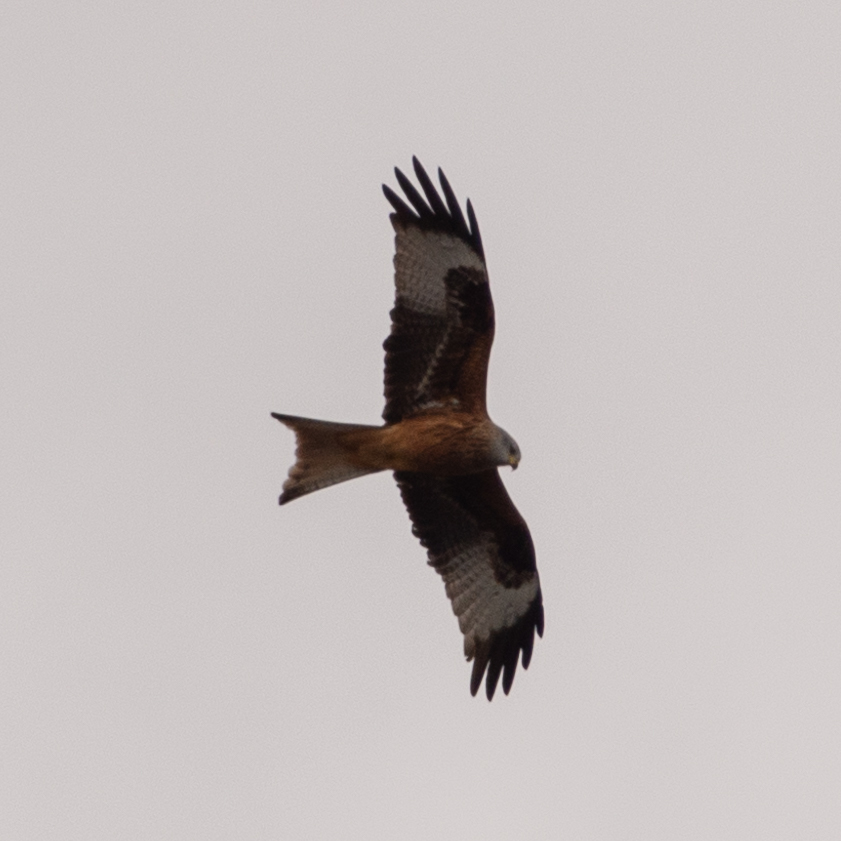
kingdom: Animalia
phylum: Chordata
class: Aves
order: Accipitriformes
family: Accipitridae
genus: Milvus
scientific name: Milvus milvus
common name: Red kite
